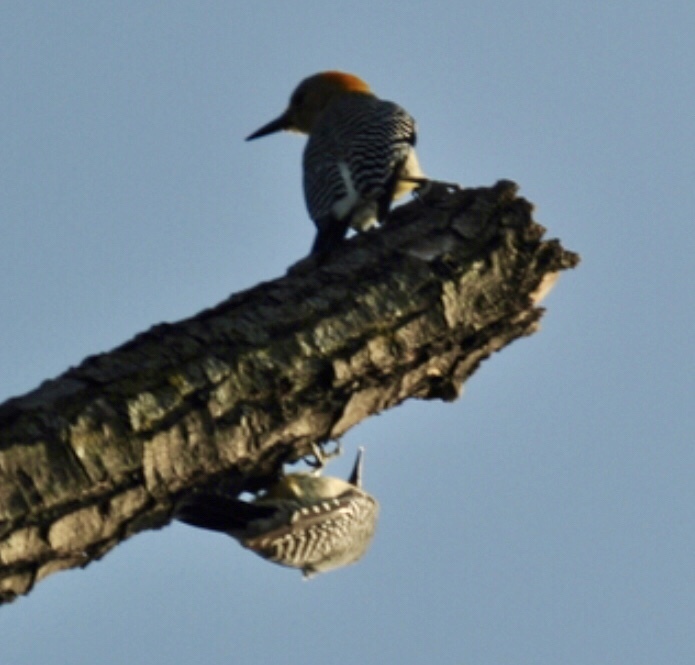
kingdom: Animalia
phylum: Chordata
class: Aves
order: Piciformes
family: Picidae
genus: Melanerpes
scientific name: Melanerpes aurifrons
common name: Golden-fronted woodpecker
